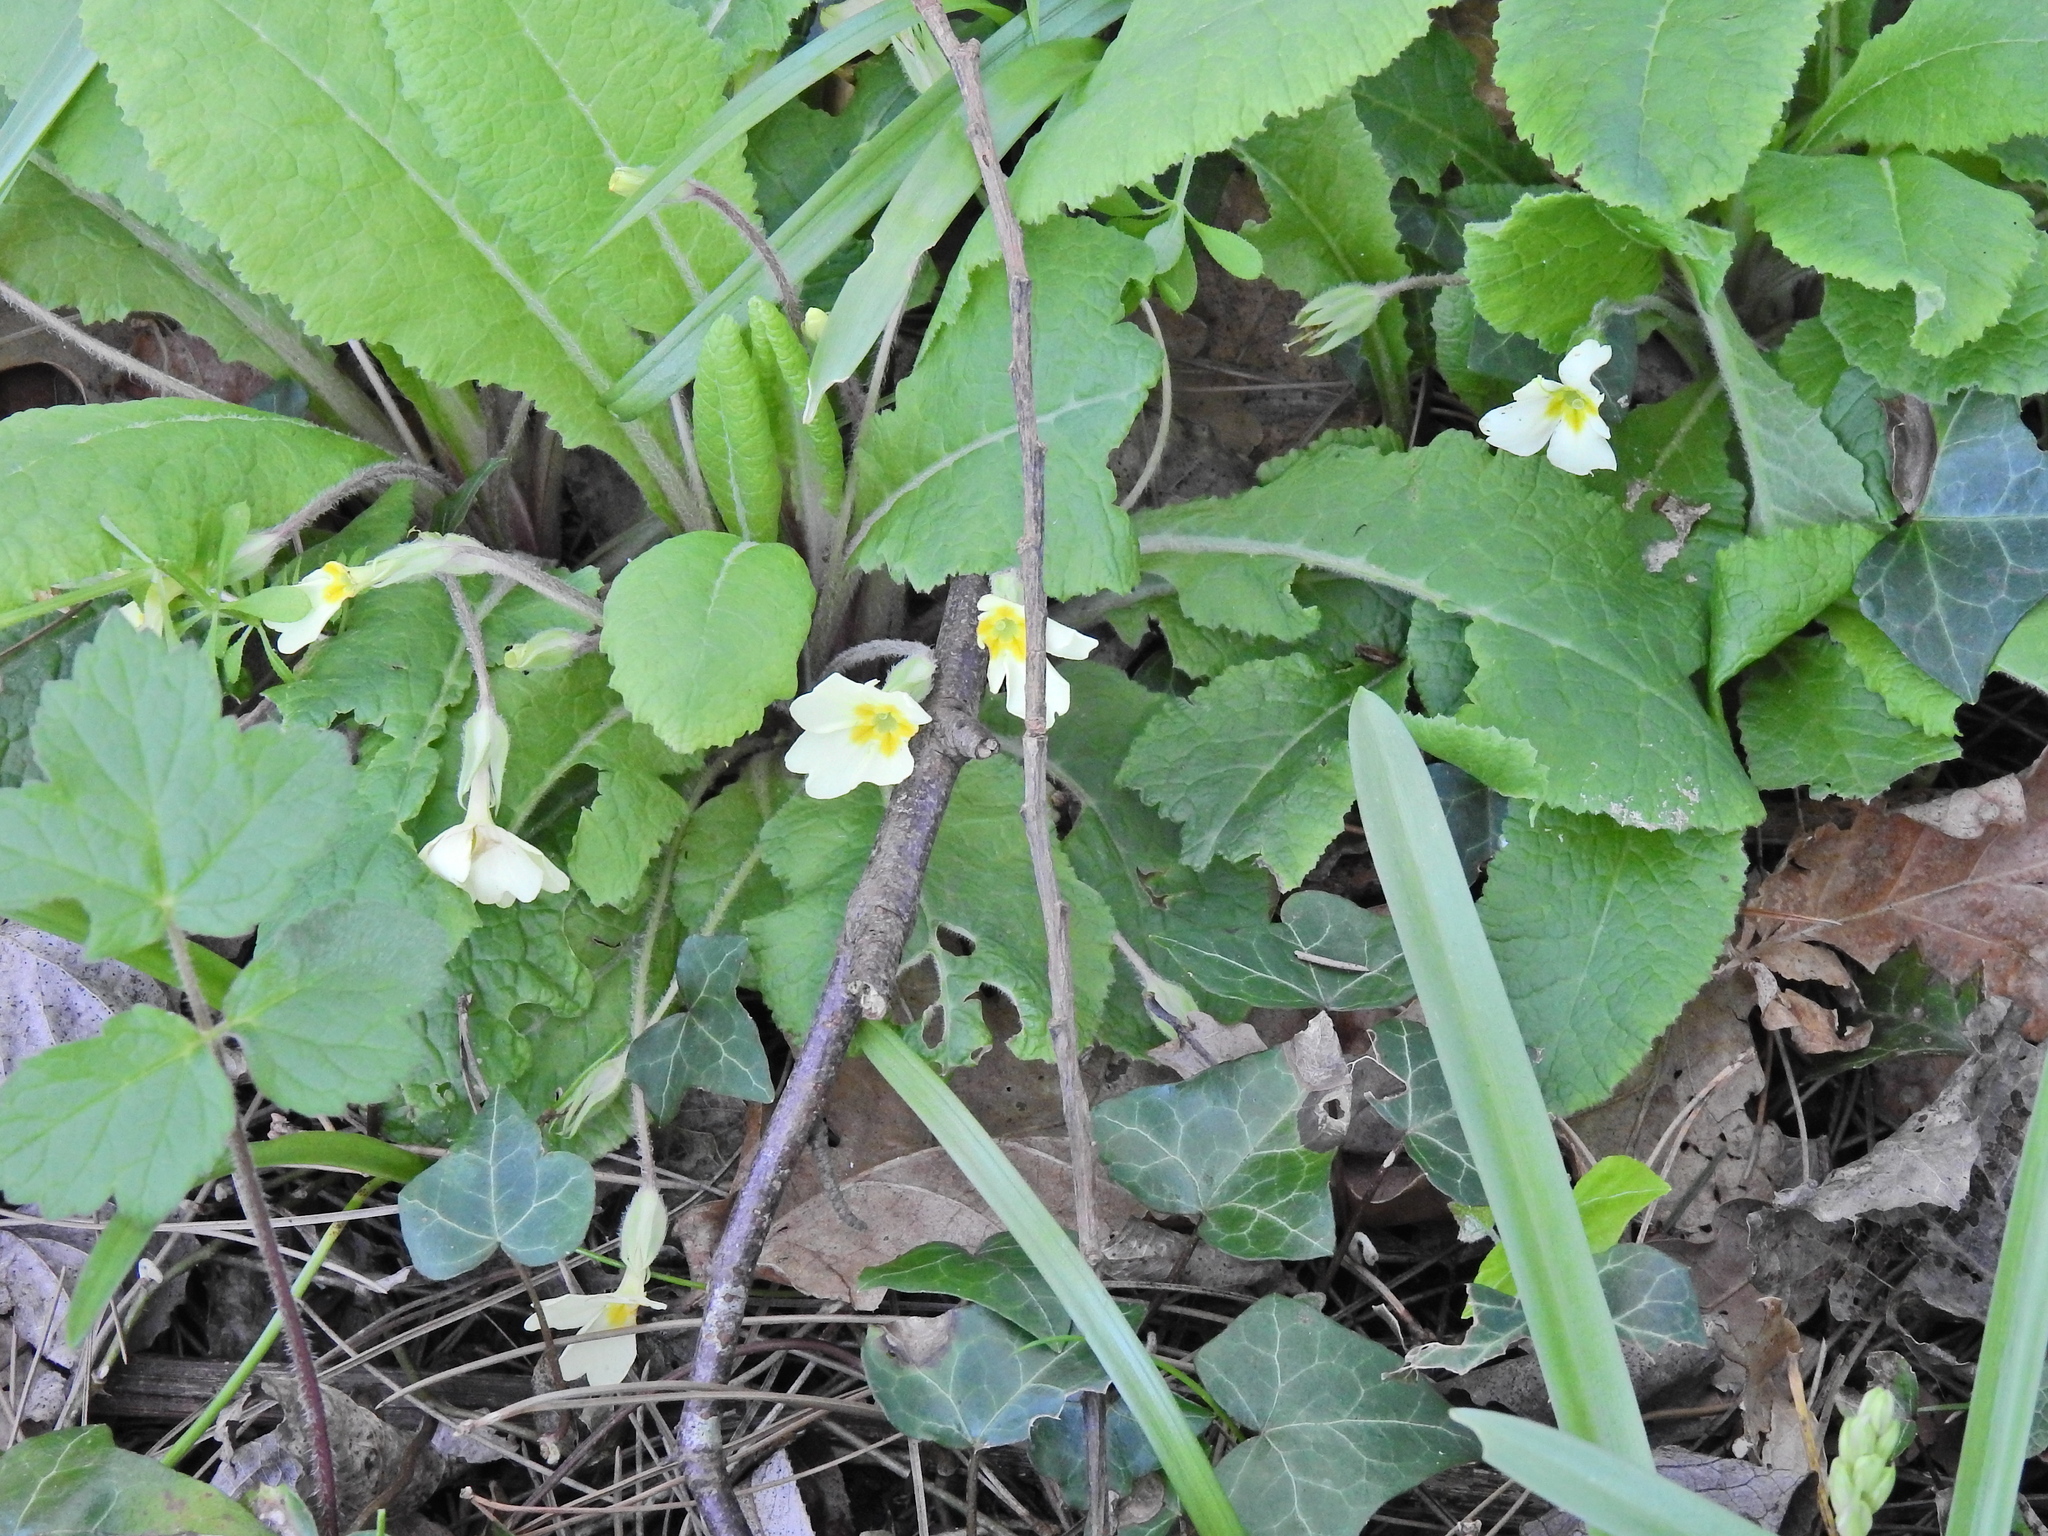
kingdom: Plantae
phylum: Tracheophyta
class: Magnoliopsida
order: Ericales
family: Primulaceae
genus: Primula
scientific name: Primula vulgaris
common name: Primrose
